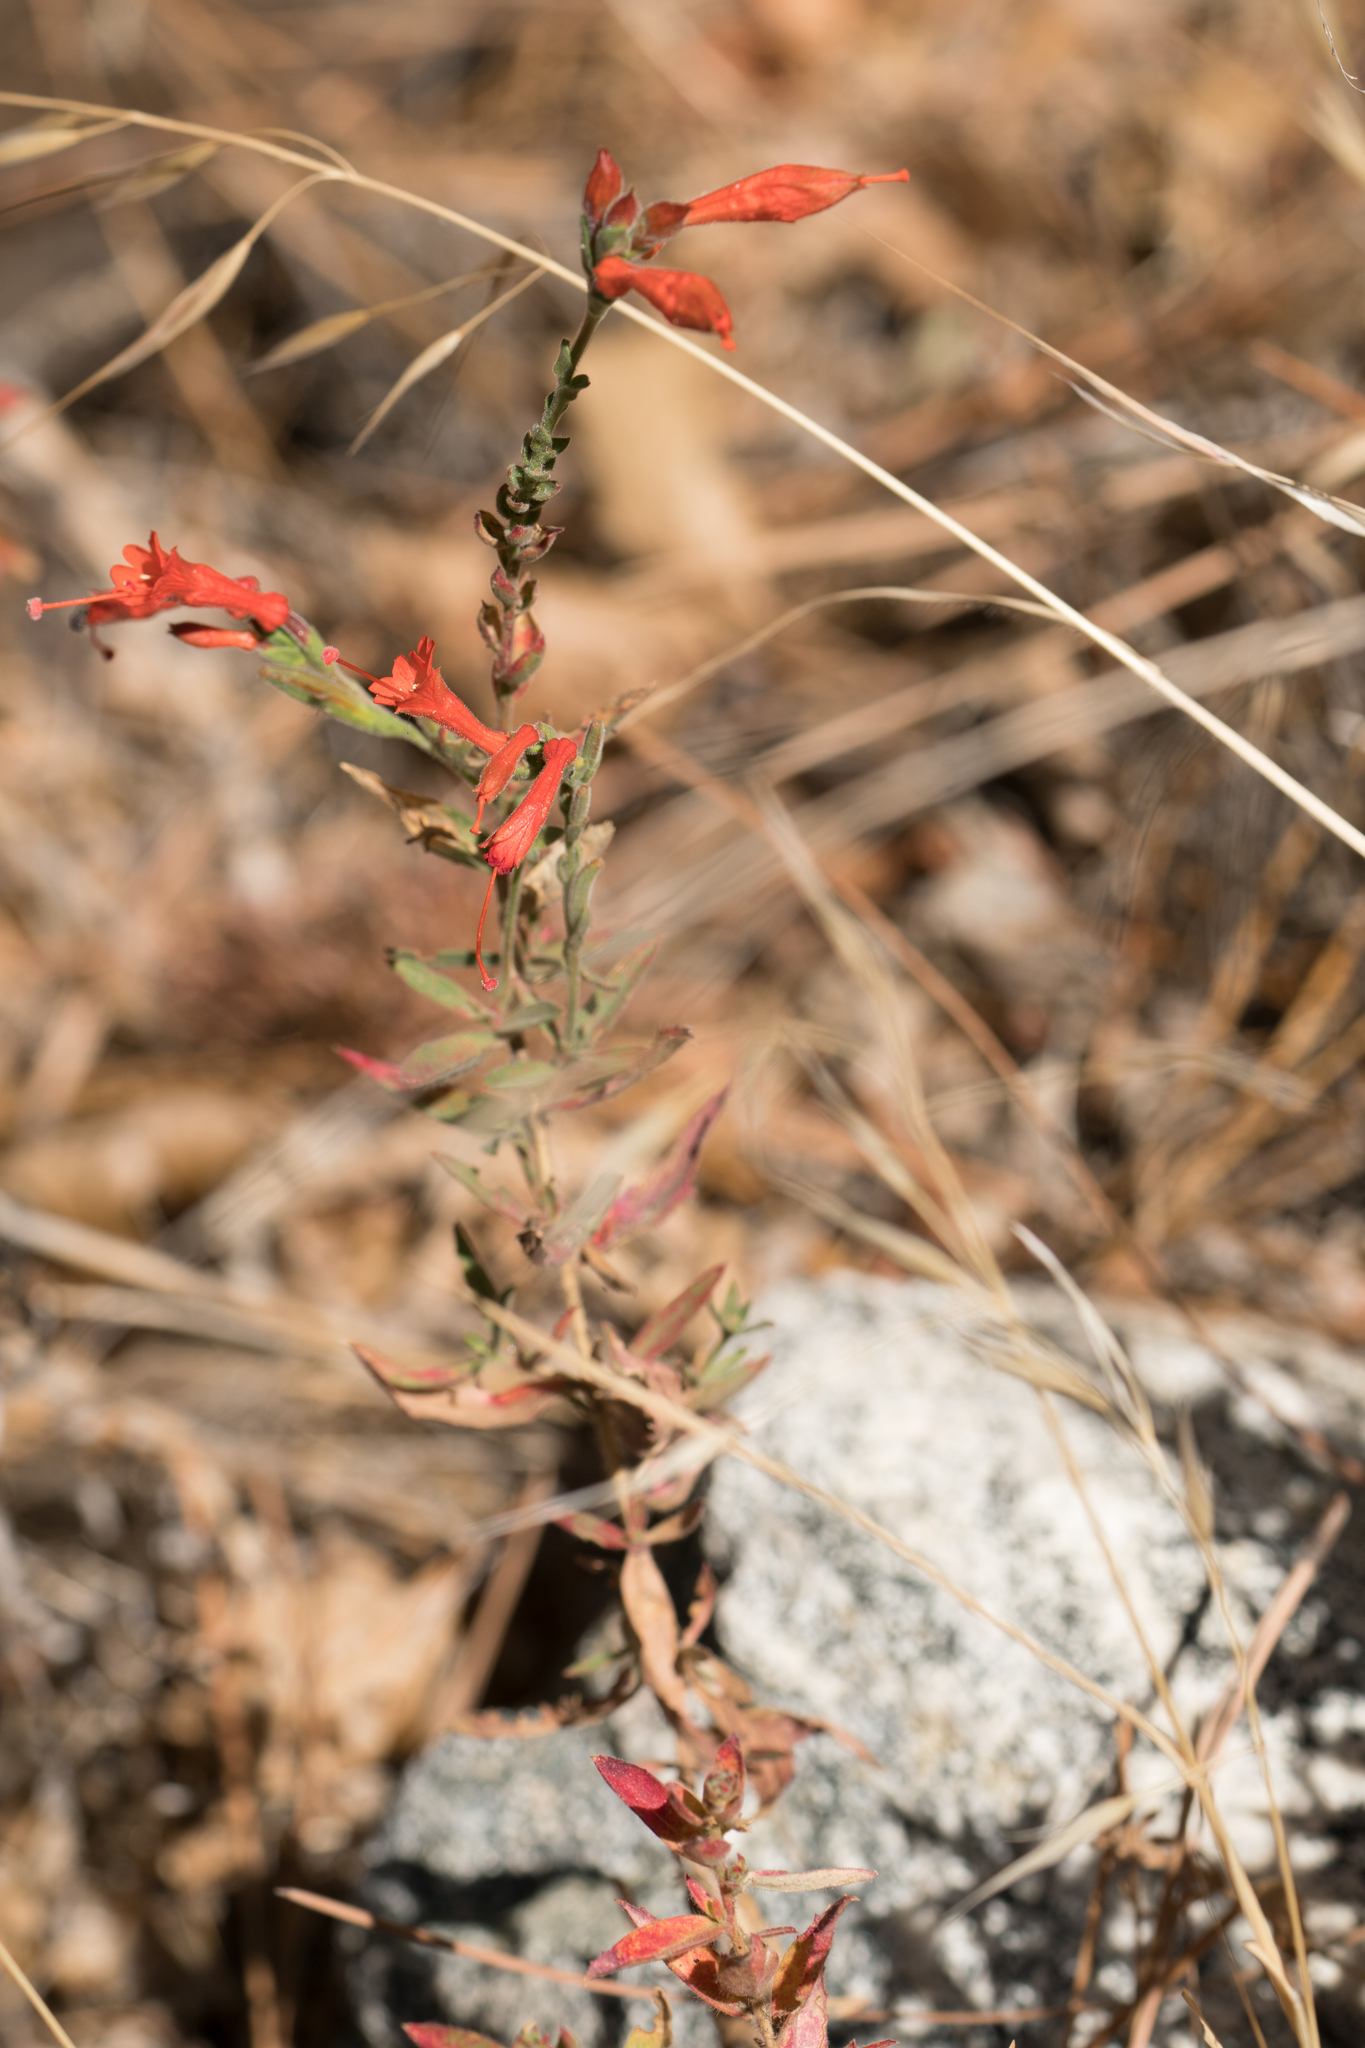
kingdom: Plantae
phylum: Tracheophyta
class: Magnoliopsida
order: Myrtales
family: Onagraceae
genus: Epilobium
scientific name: Epilobium canum
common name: California-fuchsia
